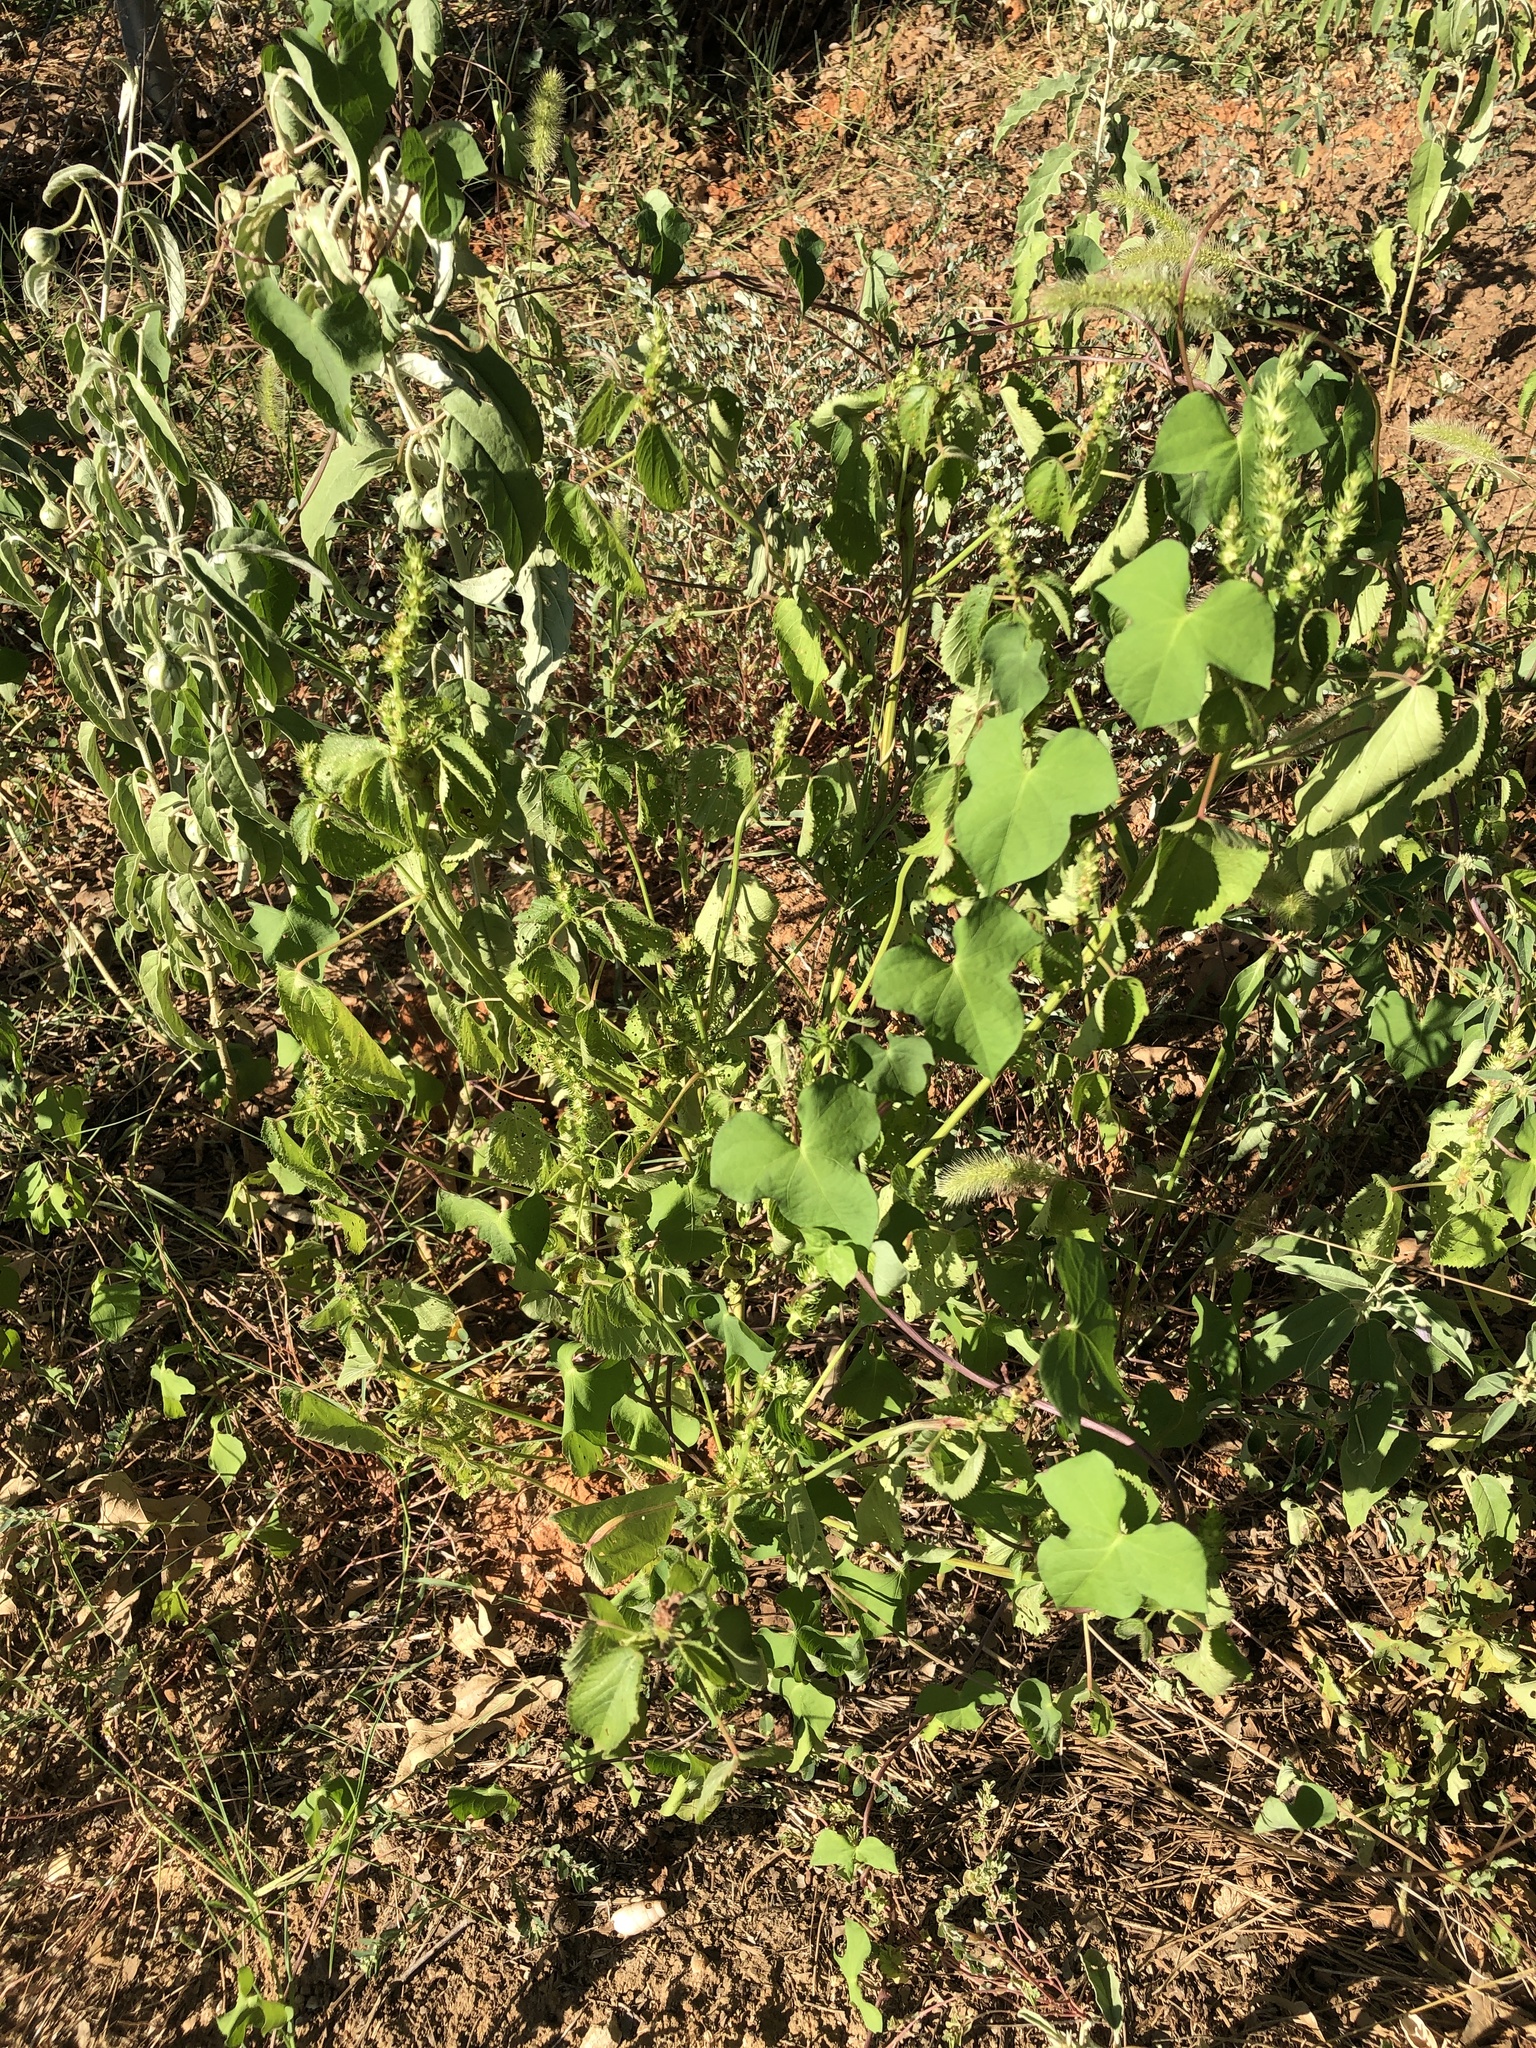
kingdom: Plantae
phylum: Tracheophyta
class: Magnoliopsida
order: Malpighiales
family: Euphorbiaceae
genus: Acalypha
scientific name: Acalypha ostryifolia
